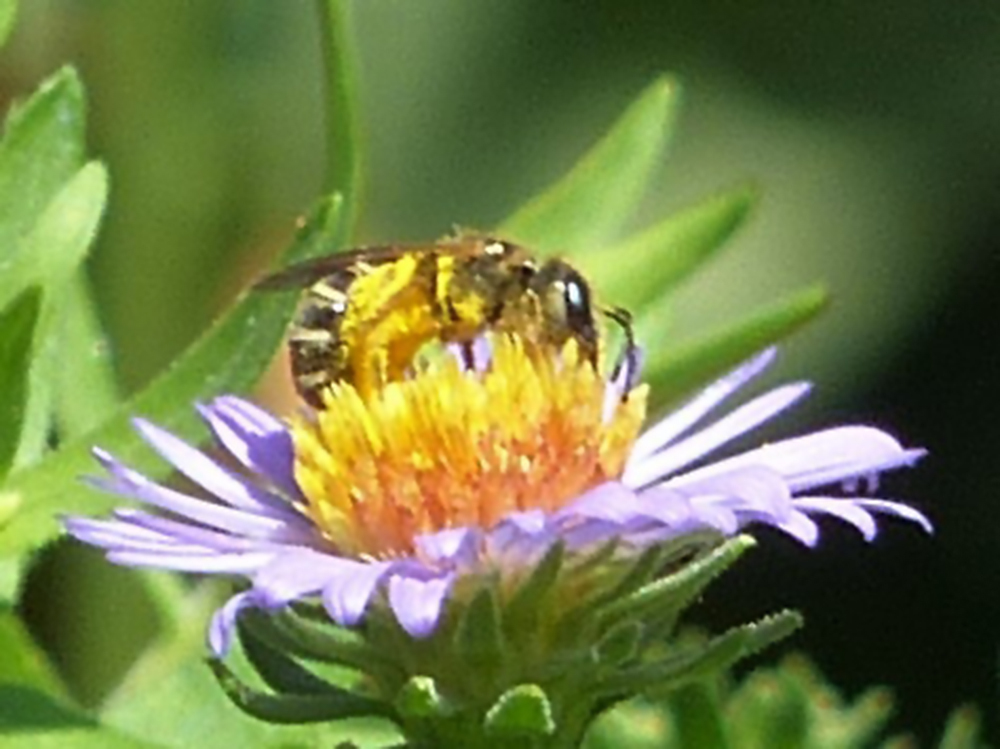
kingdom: Animalia
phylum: Arthropoda
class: Insecta
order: Hymenoptera
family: Halictidae
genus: Halictus
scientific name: Halictus ligatus
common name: Ligated furrow bee
